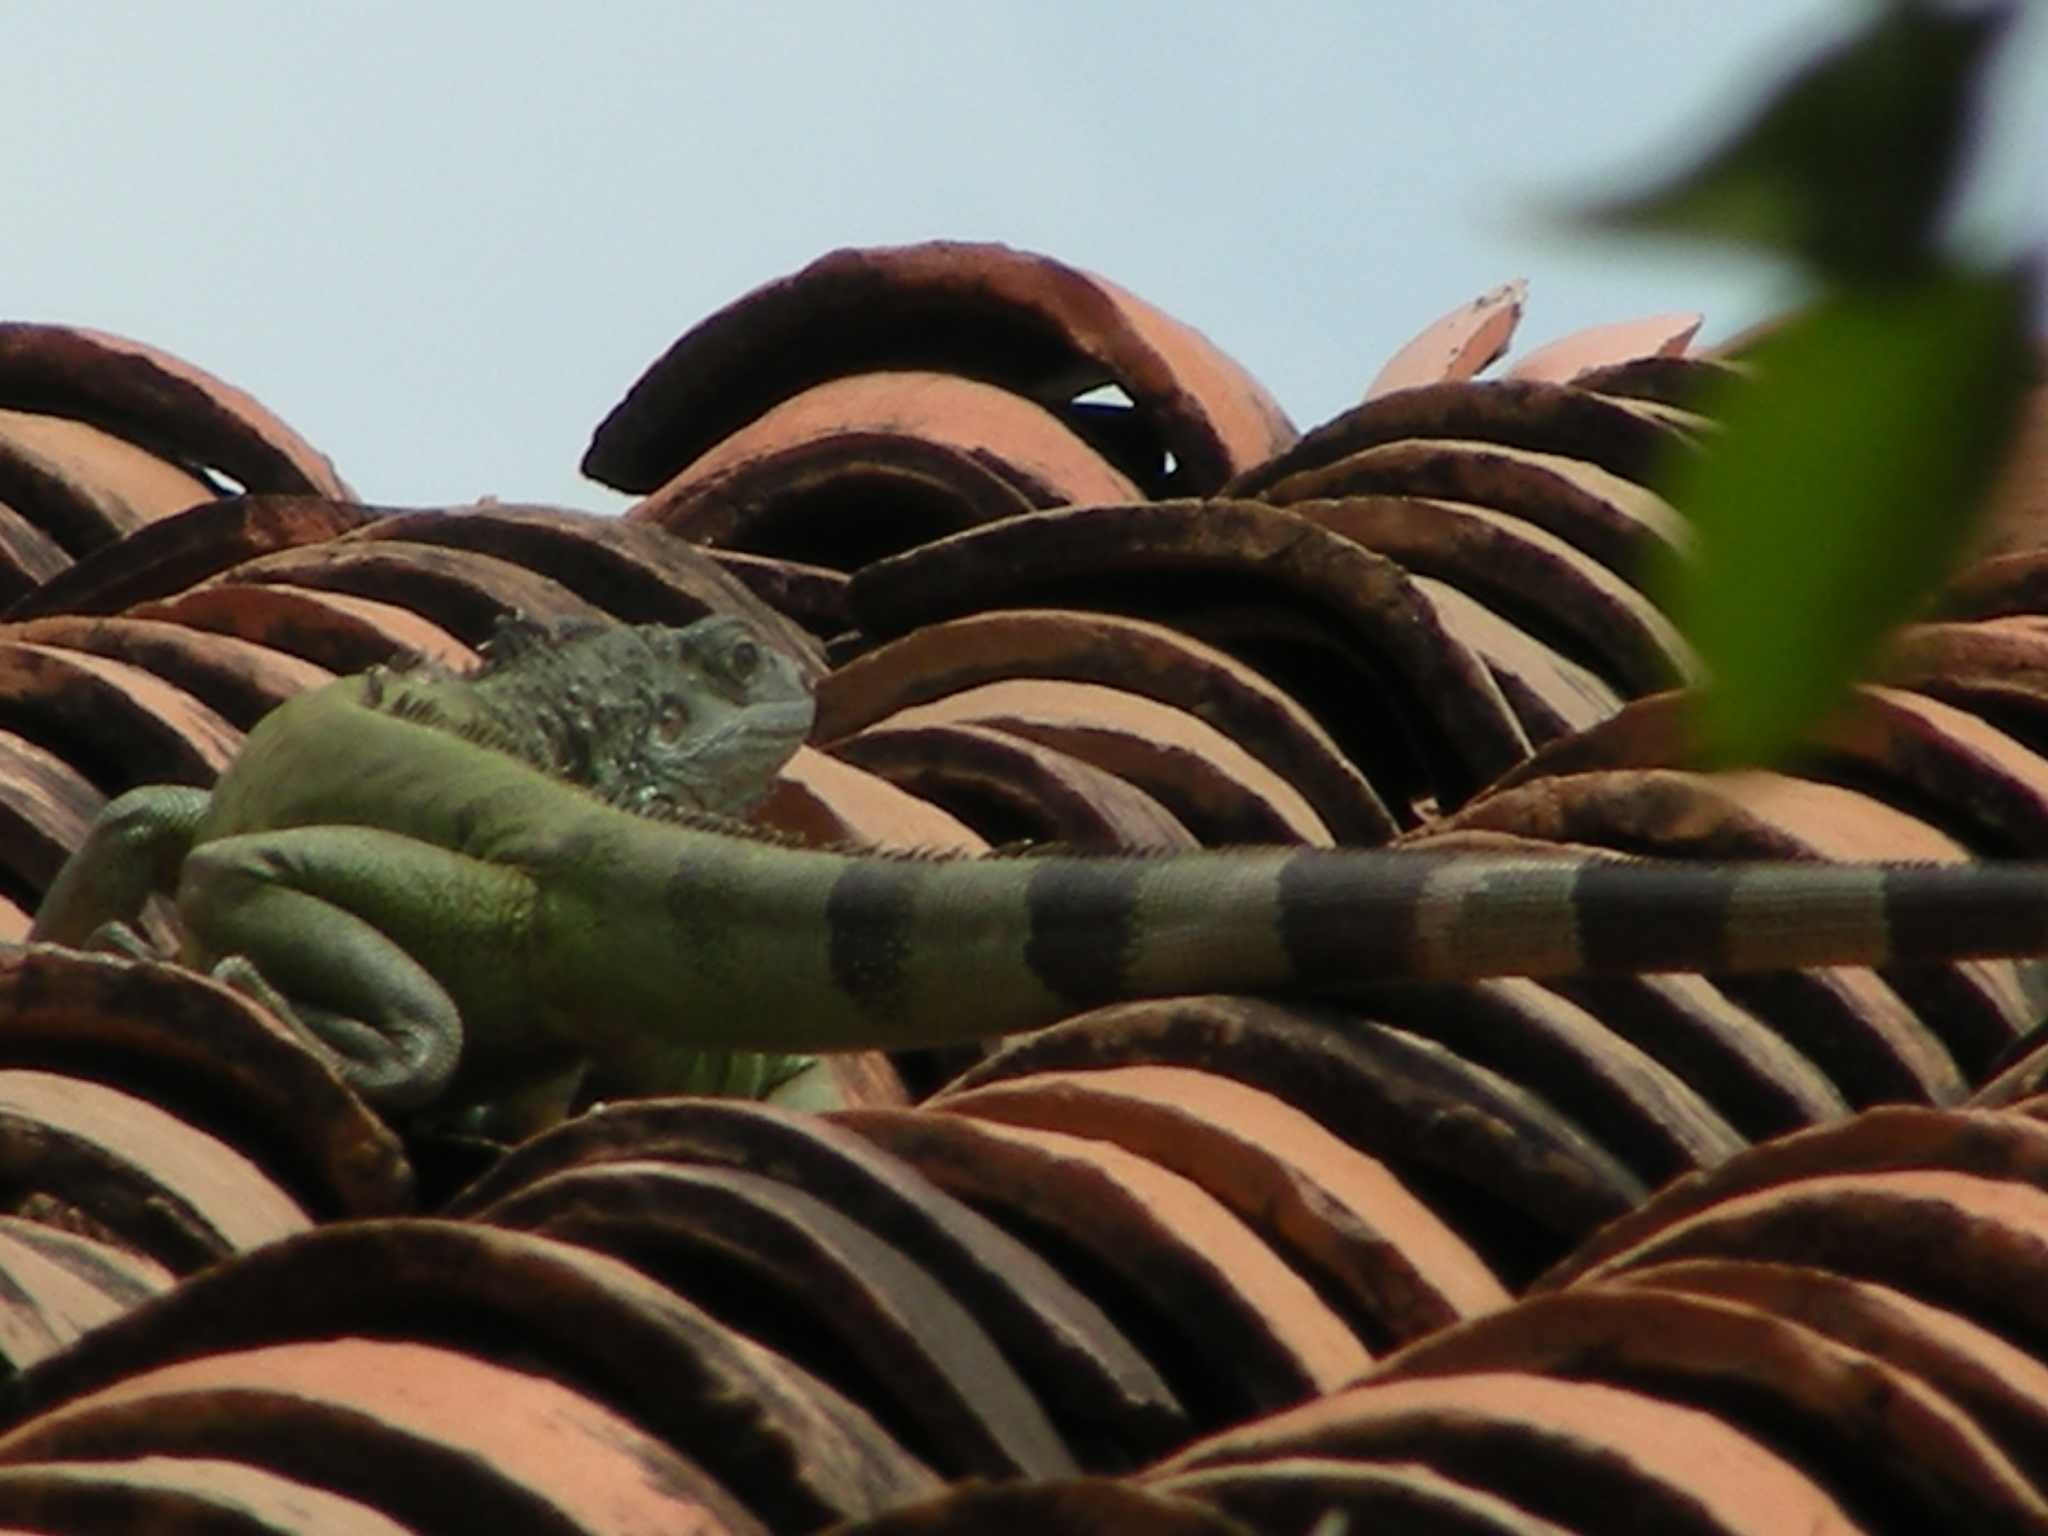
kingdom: Animalia
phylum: Chordata
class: Squamata
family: Iguanidae
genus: Iguana
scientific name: Iguana iguana
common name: Green iguana
